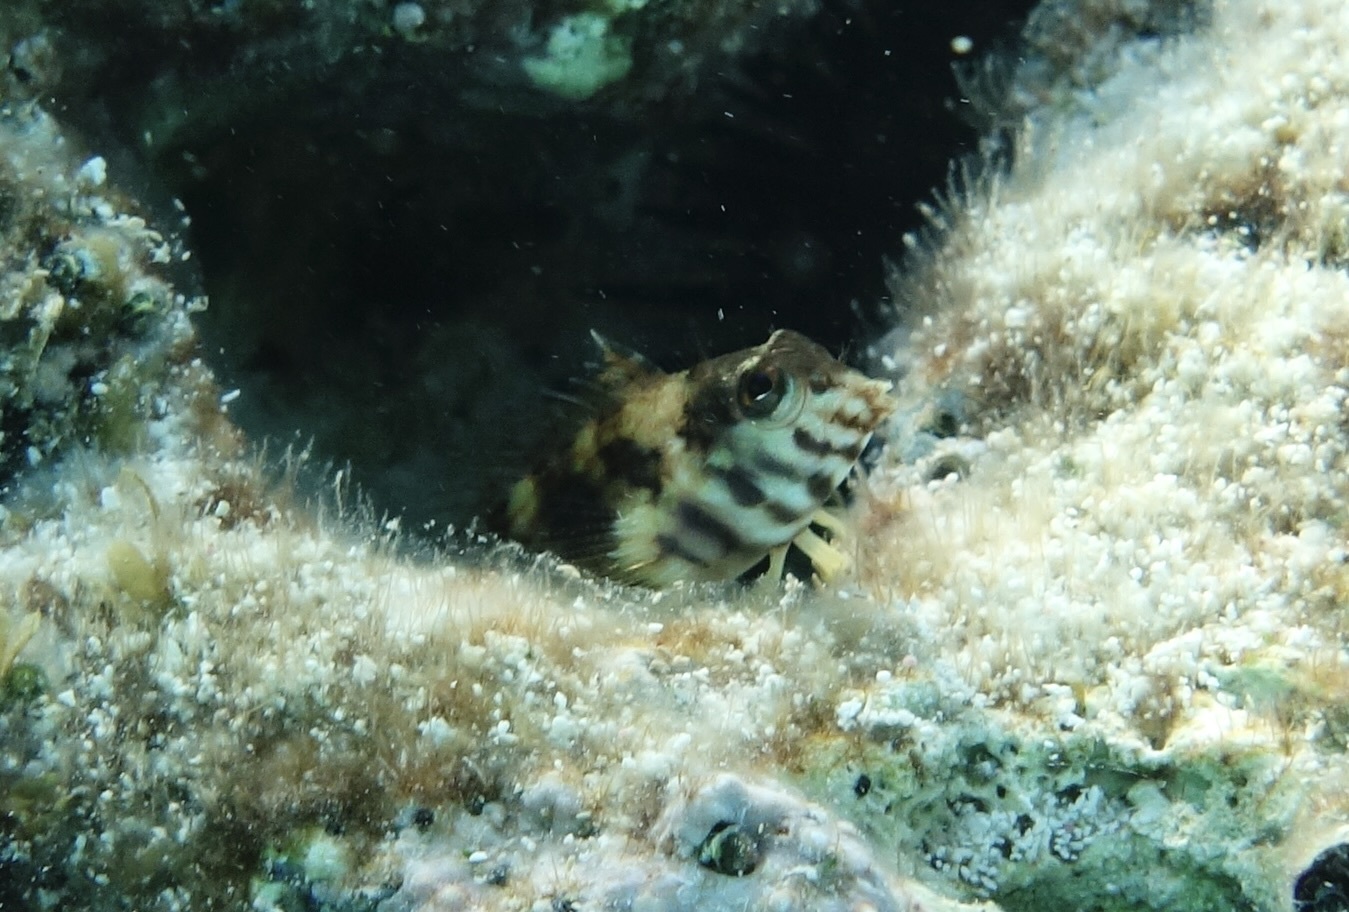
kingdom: Animalia
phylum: Chordata
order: Perciformes
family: Labrisomidae
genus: Malacoctenus
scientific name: Malacoctenus aurolineatus
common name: Goldline blenny
